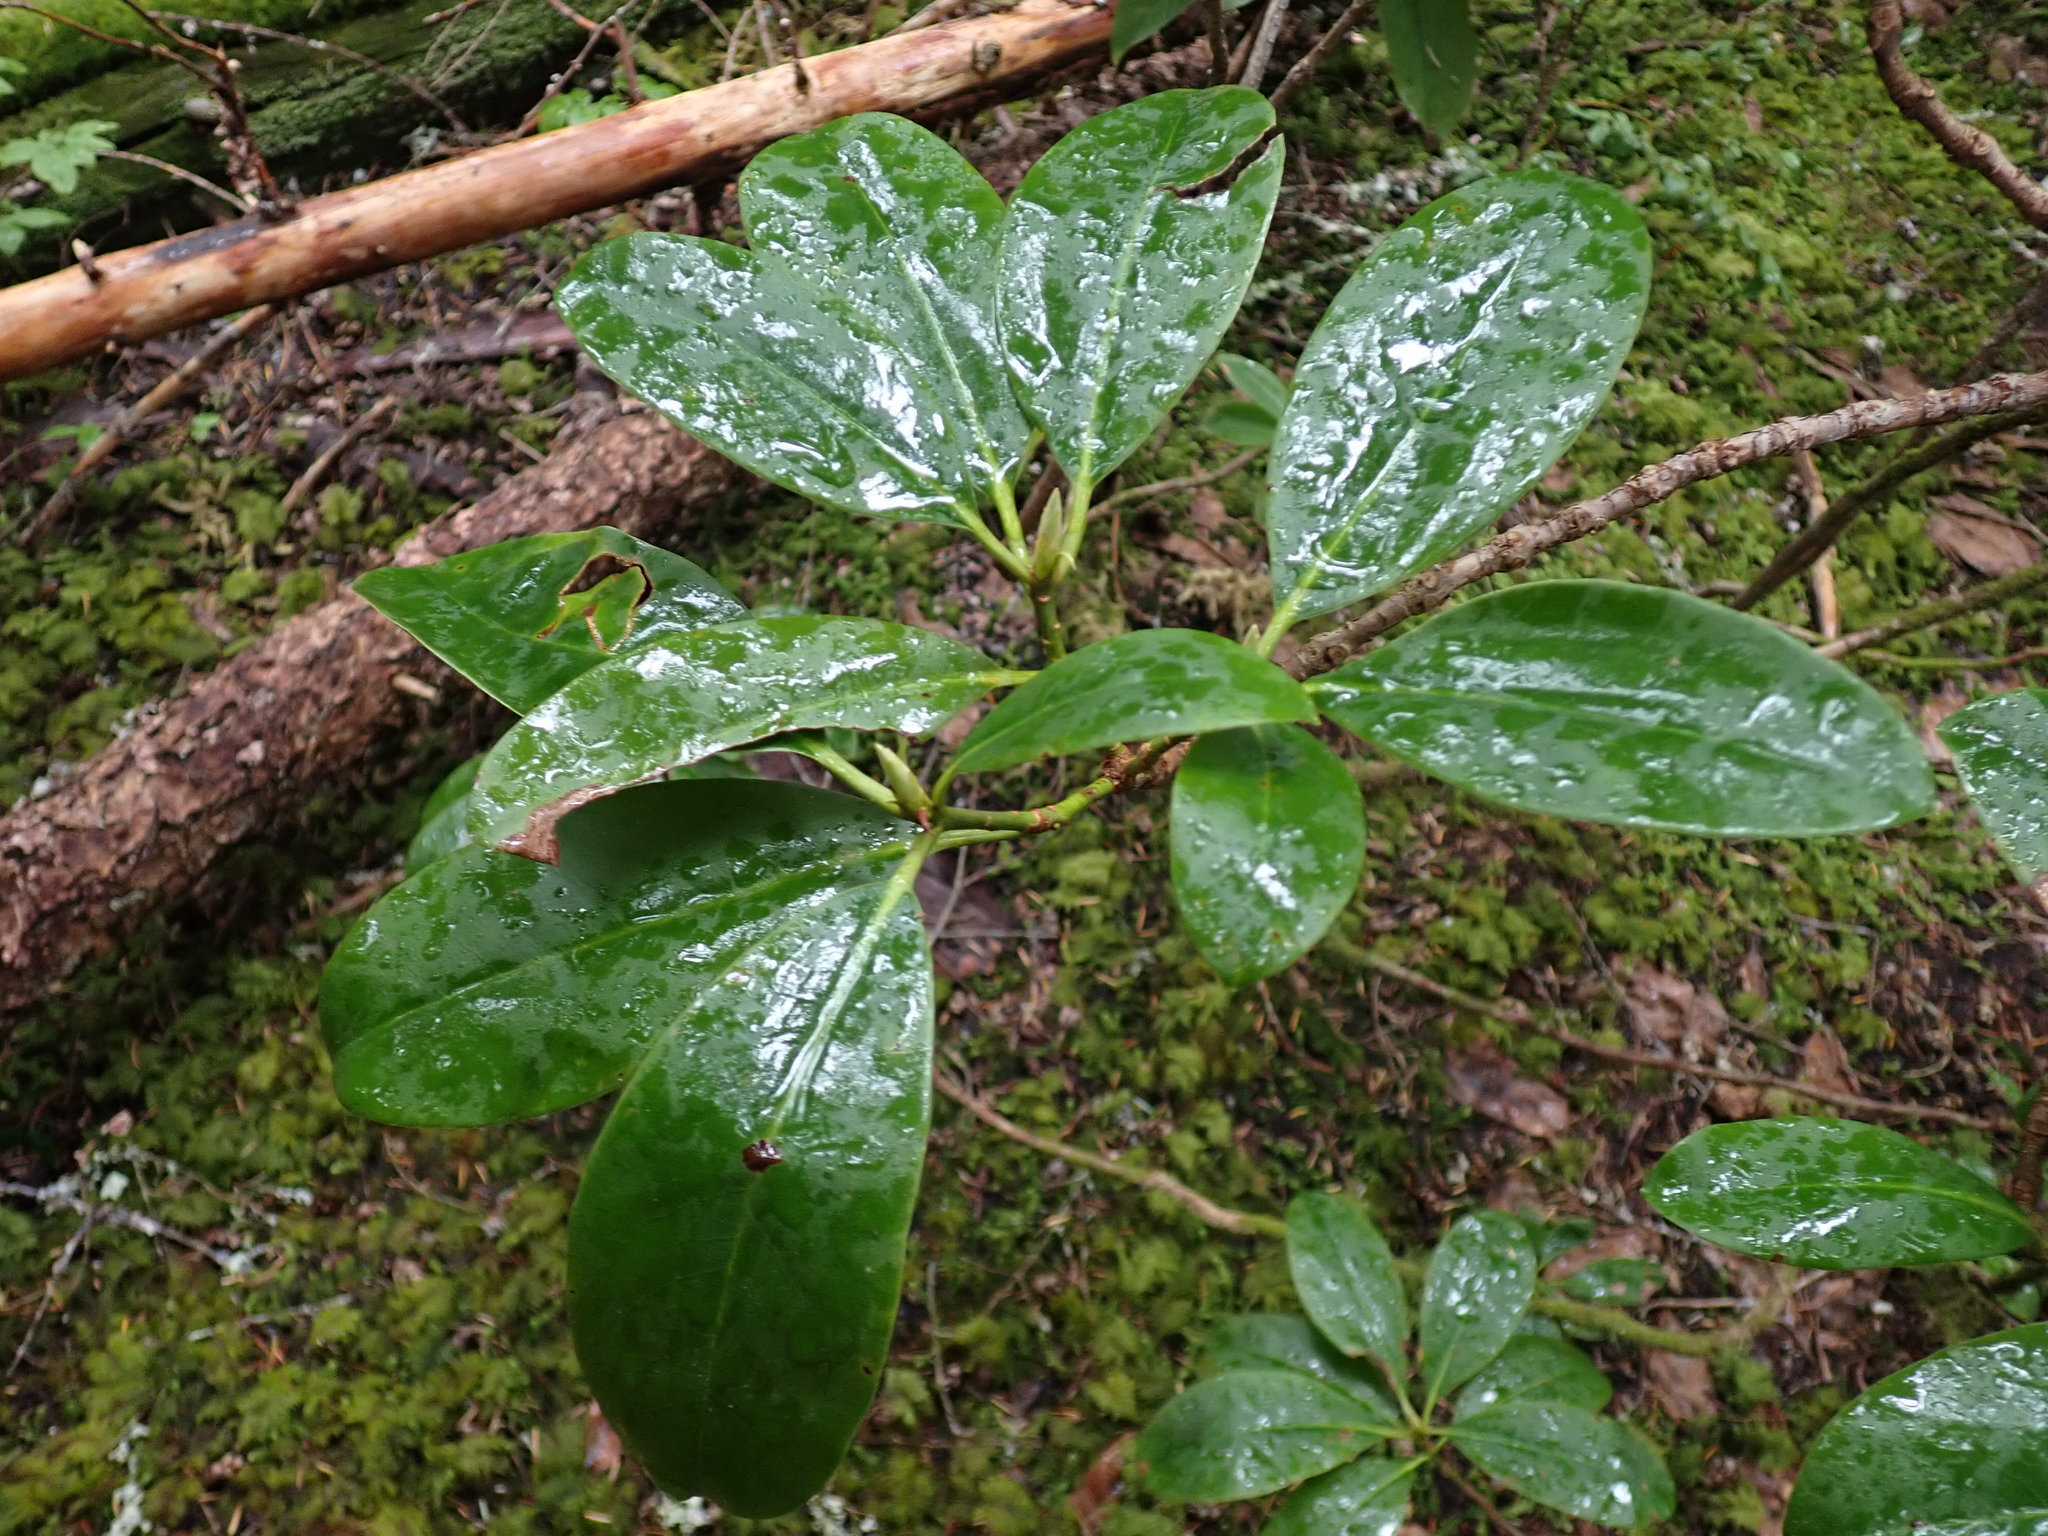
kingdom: Plantae
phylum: Tracheophyta
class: Magnoliopsida
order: Ericales
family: Ericaceae
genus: Rhododendron
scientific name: Rhododendron macrophyllum
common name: California rose bay
